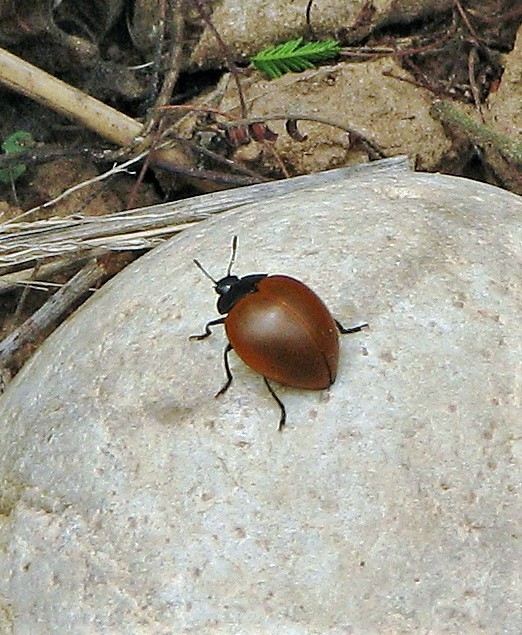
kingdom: Animalia
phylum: Arthropoda
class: Insecta
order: Coleoptera
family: Erotylidae
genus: Aegithus
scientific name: Aegithus clavicornis
